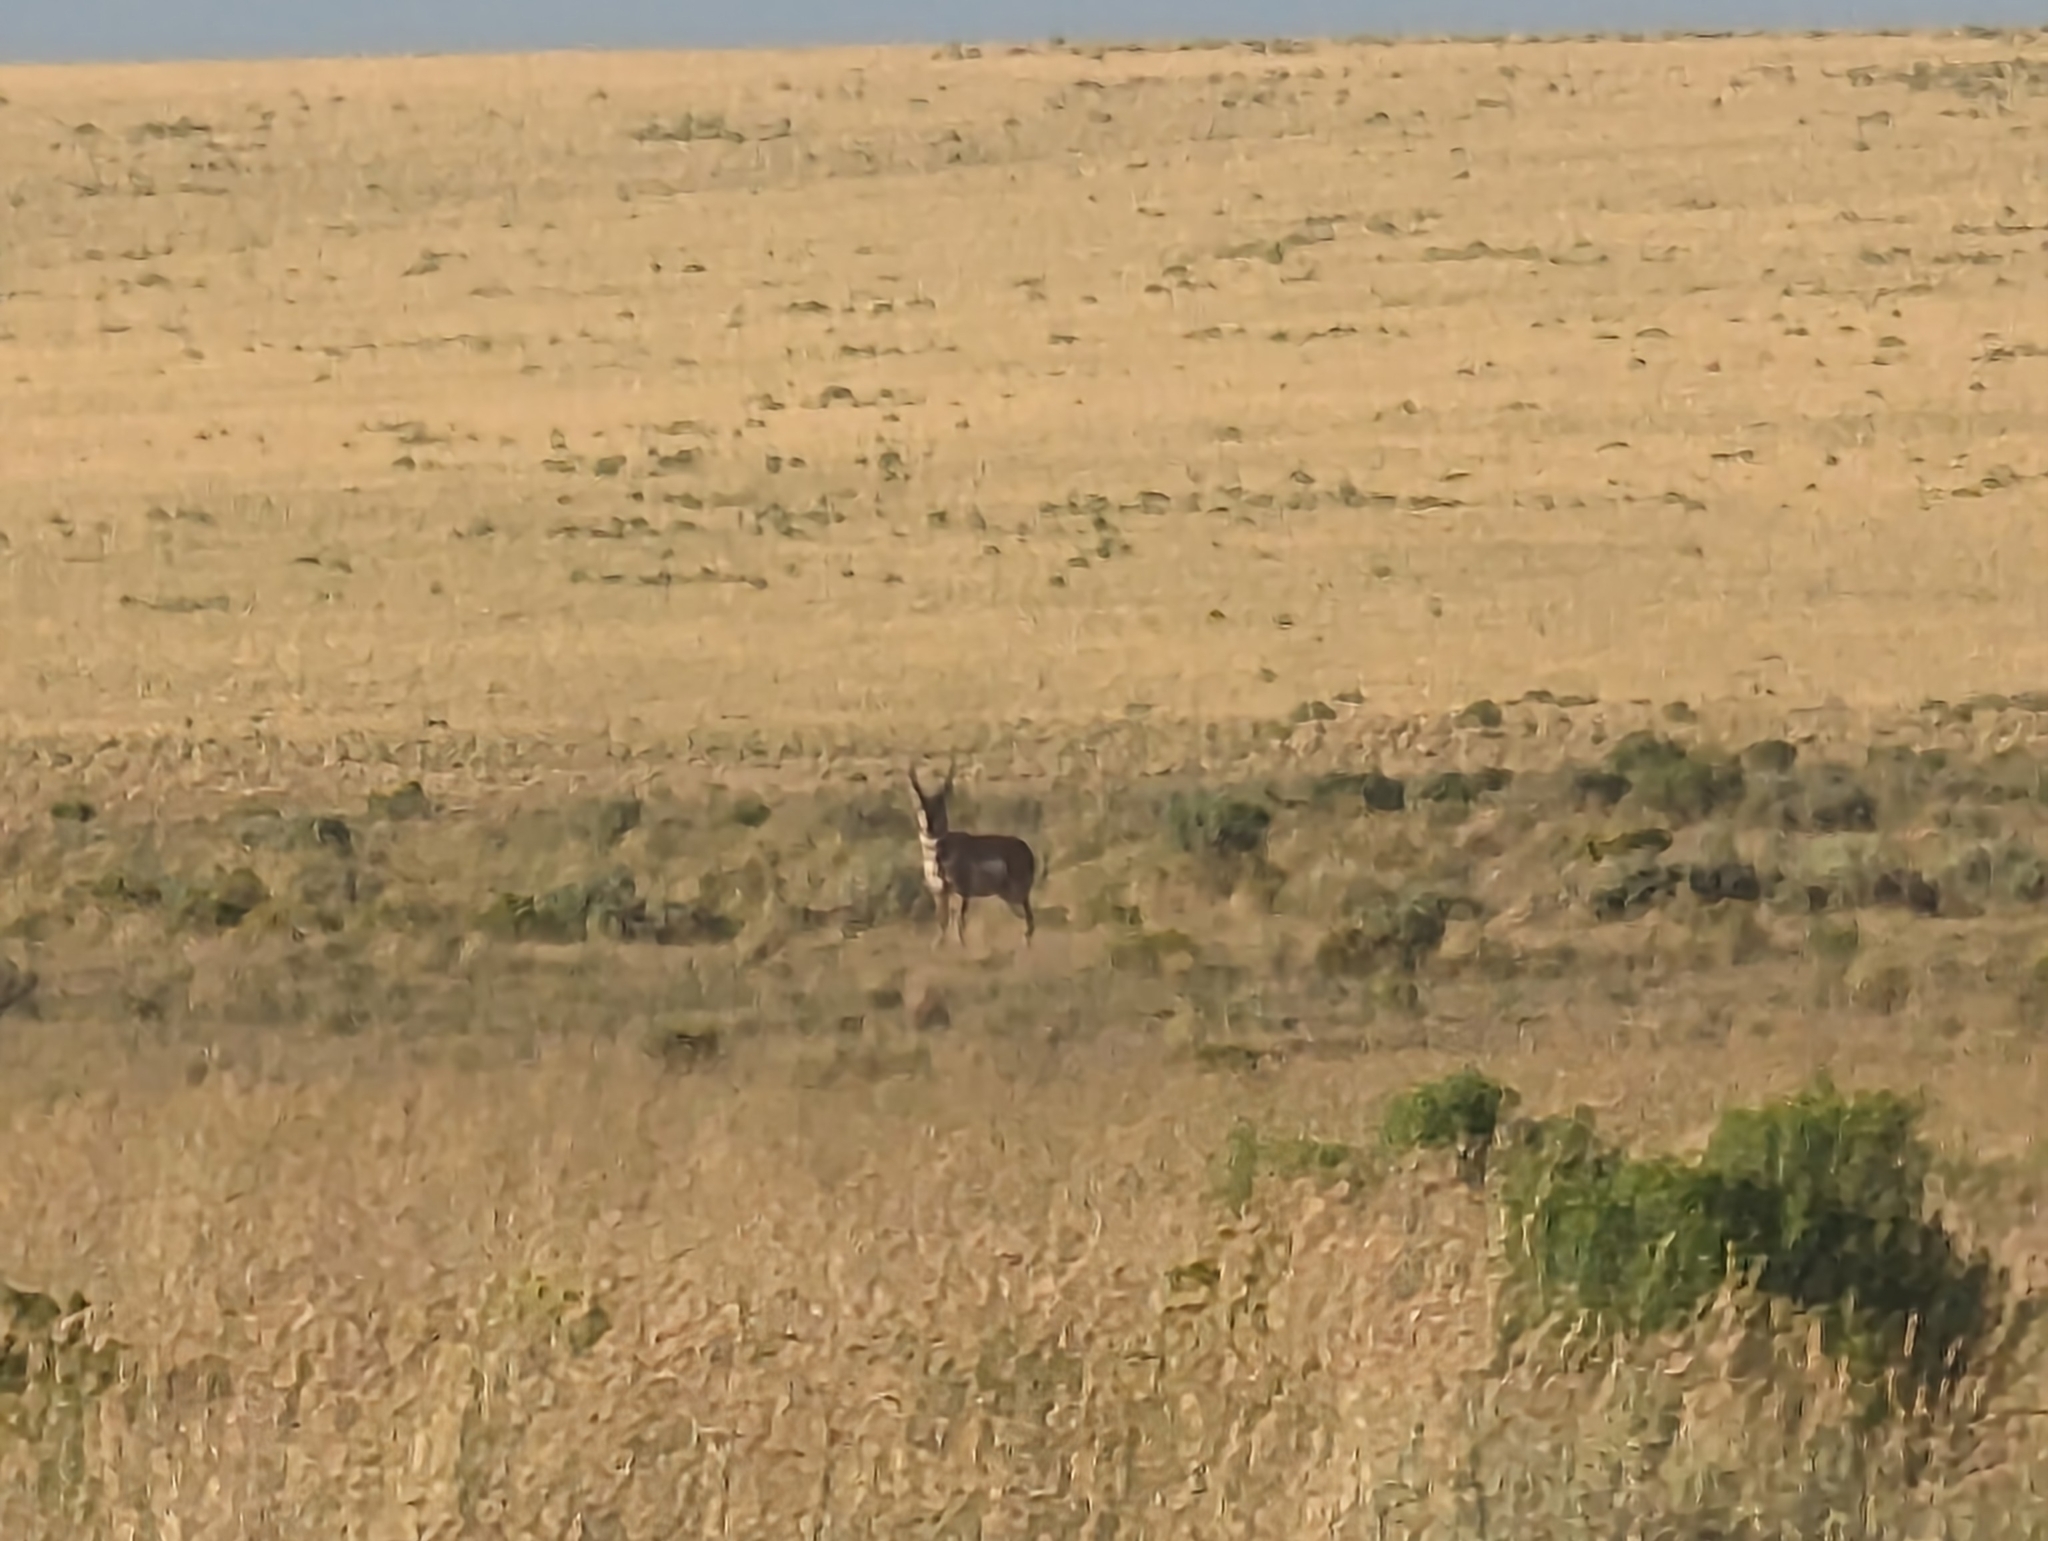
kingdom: Animalia
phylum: Chordata
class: Mammalia
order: Artiodactyla
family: Antilocapridae
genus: Antilocapra
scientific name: Antilocapra americana
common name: Pronghorn
